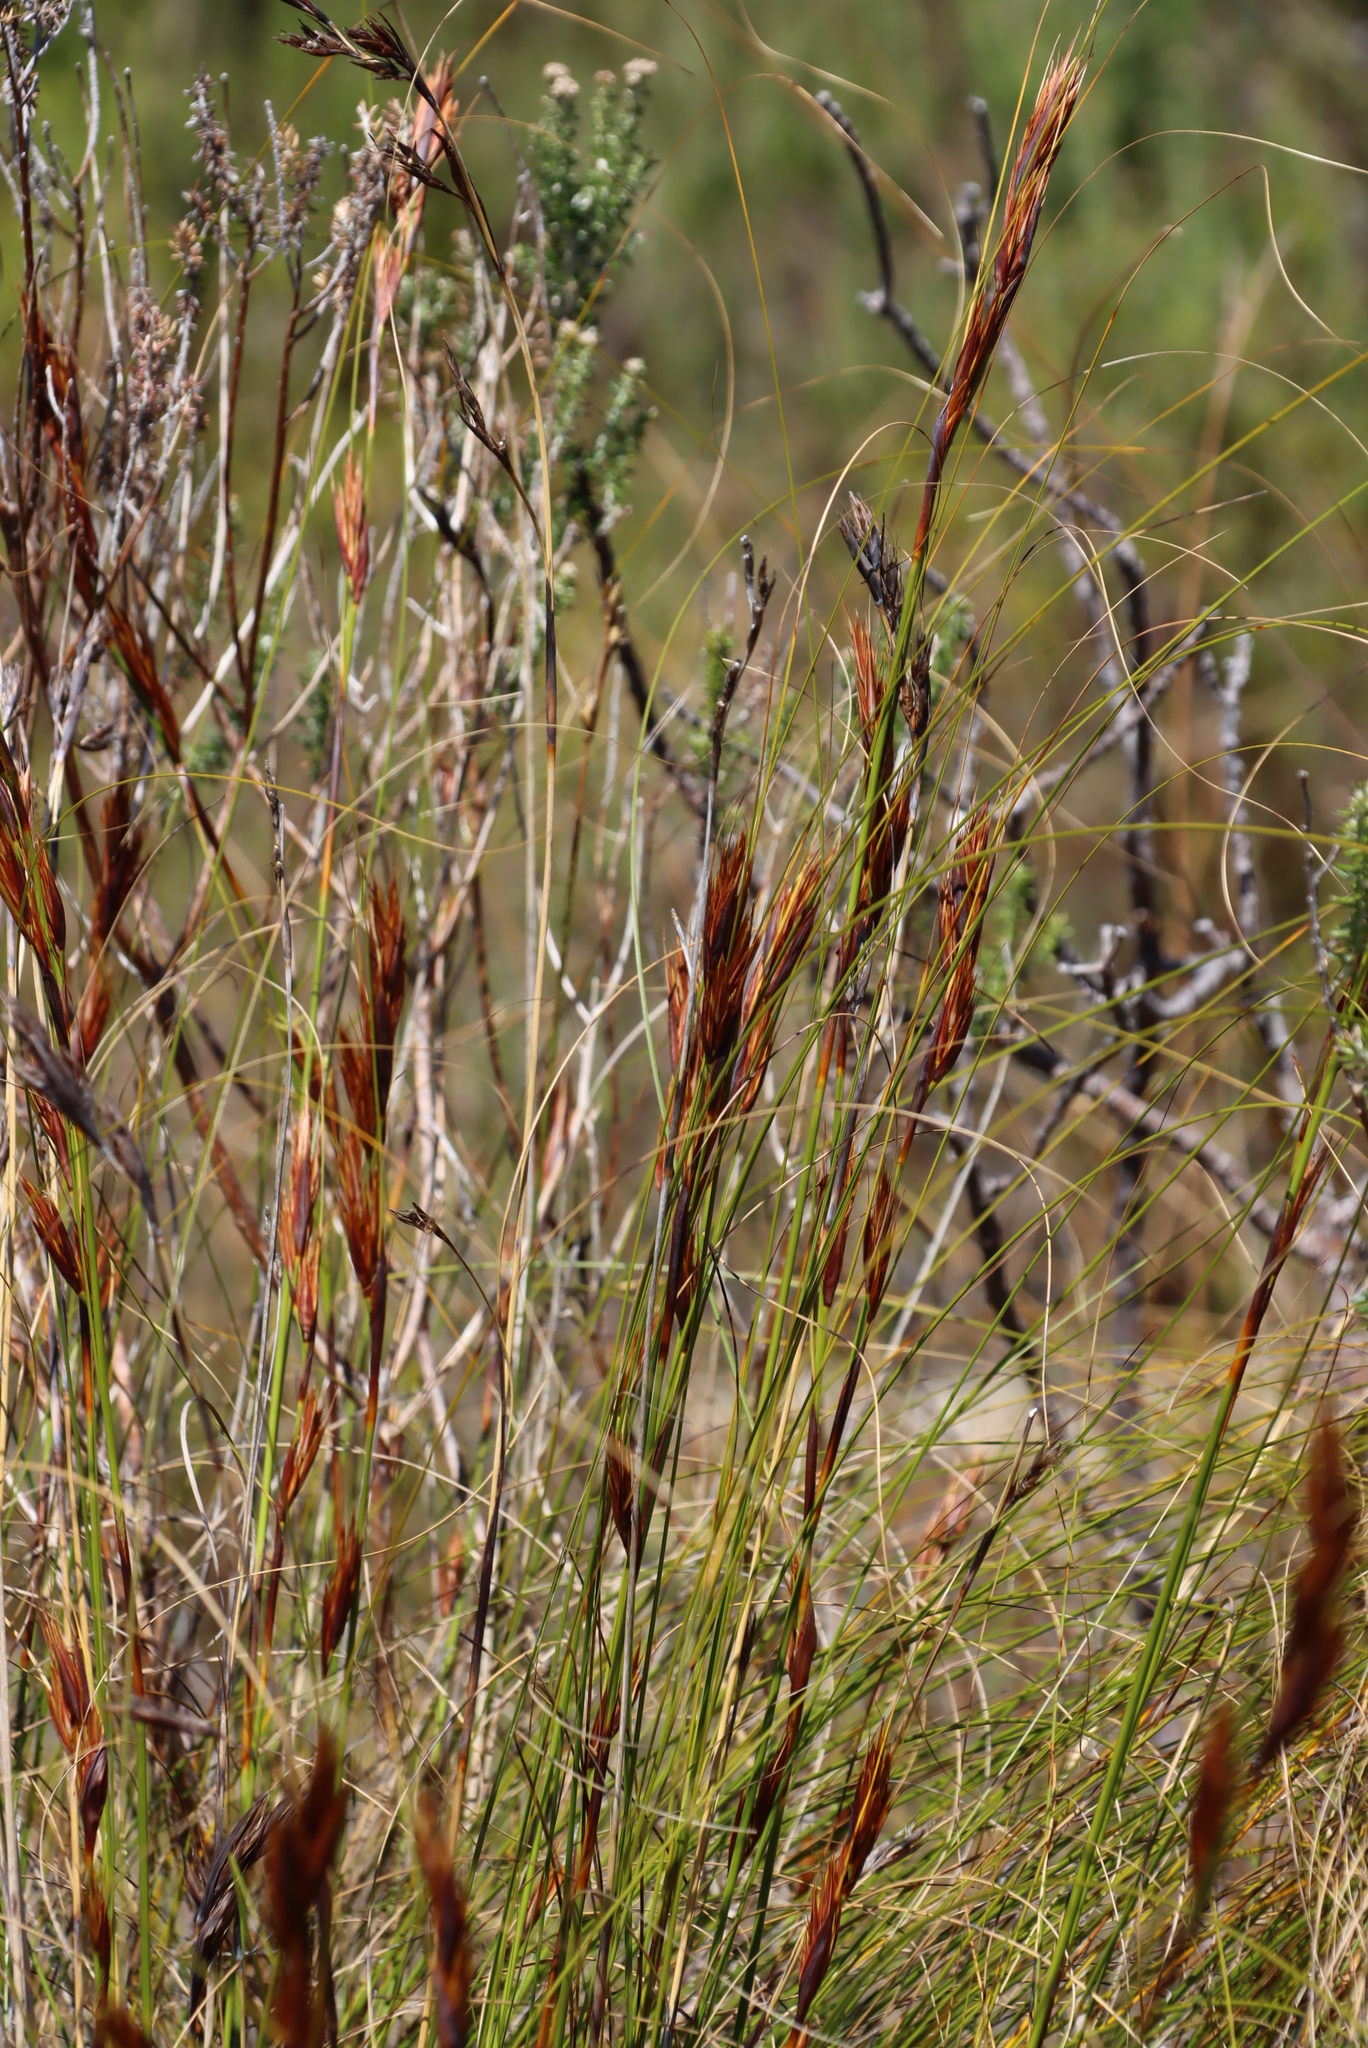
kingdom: Plantae
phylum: Tracheophyta
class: Liliopsida
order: Poales
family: Cyperaceae
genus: Tetraria
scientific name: Tetraria ustulata
